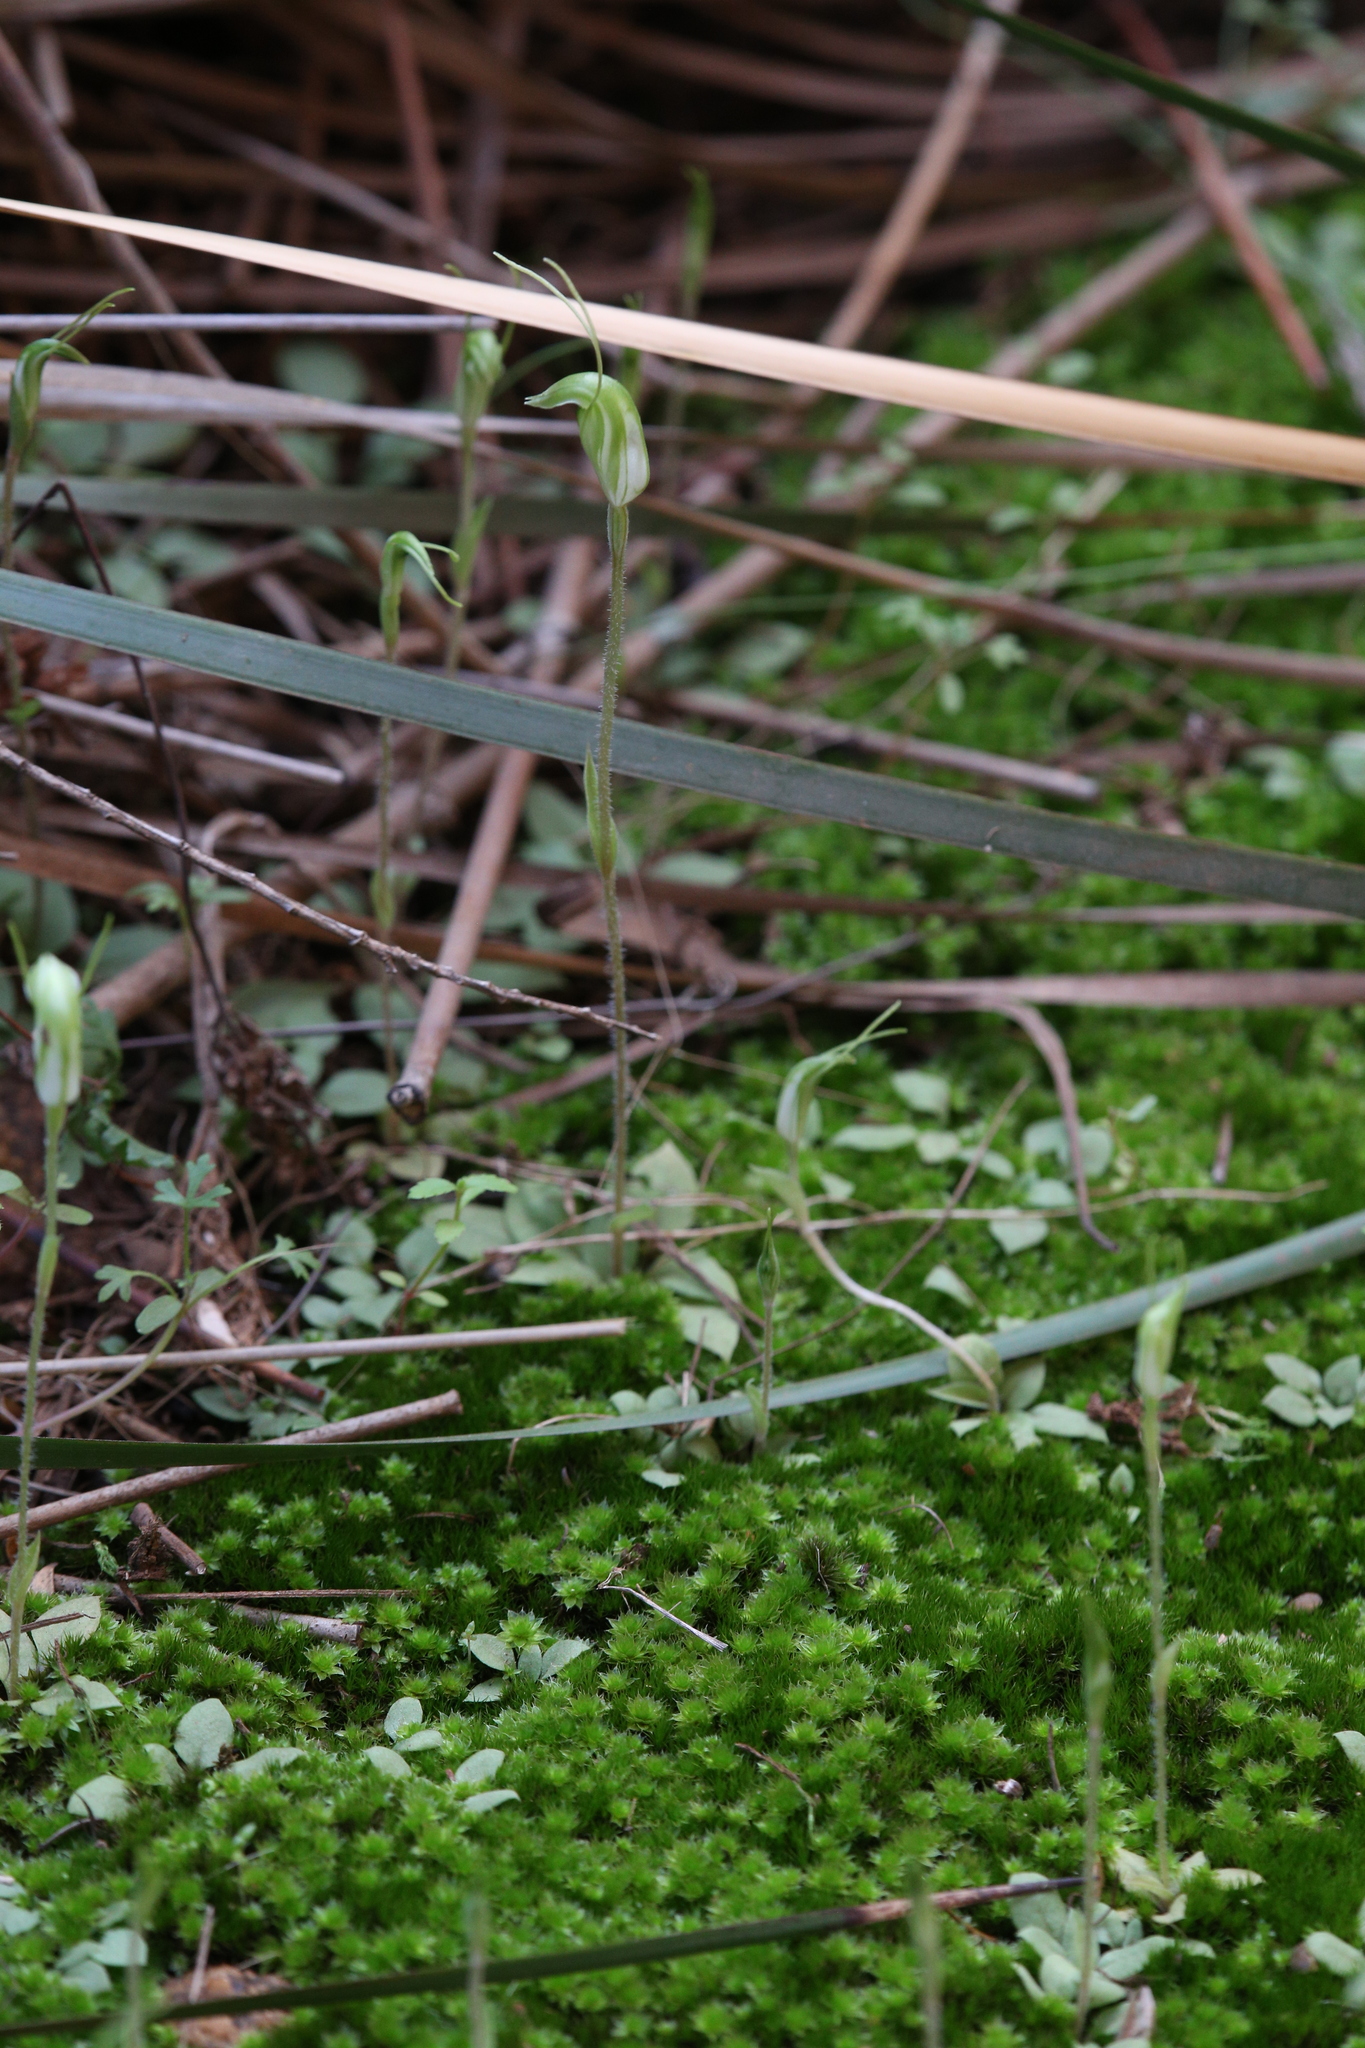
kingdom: Plantae
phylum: Tracheophyta
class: Liliopsida
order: Asparagales
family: Orchidaceae
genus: Pterostylis
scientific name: Pterostylis setulosa
